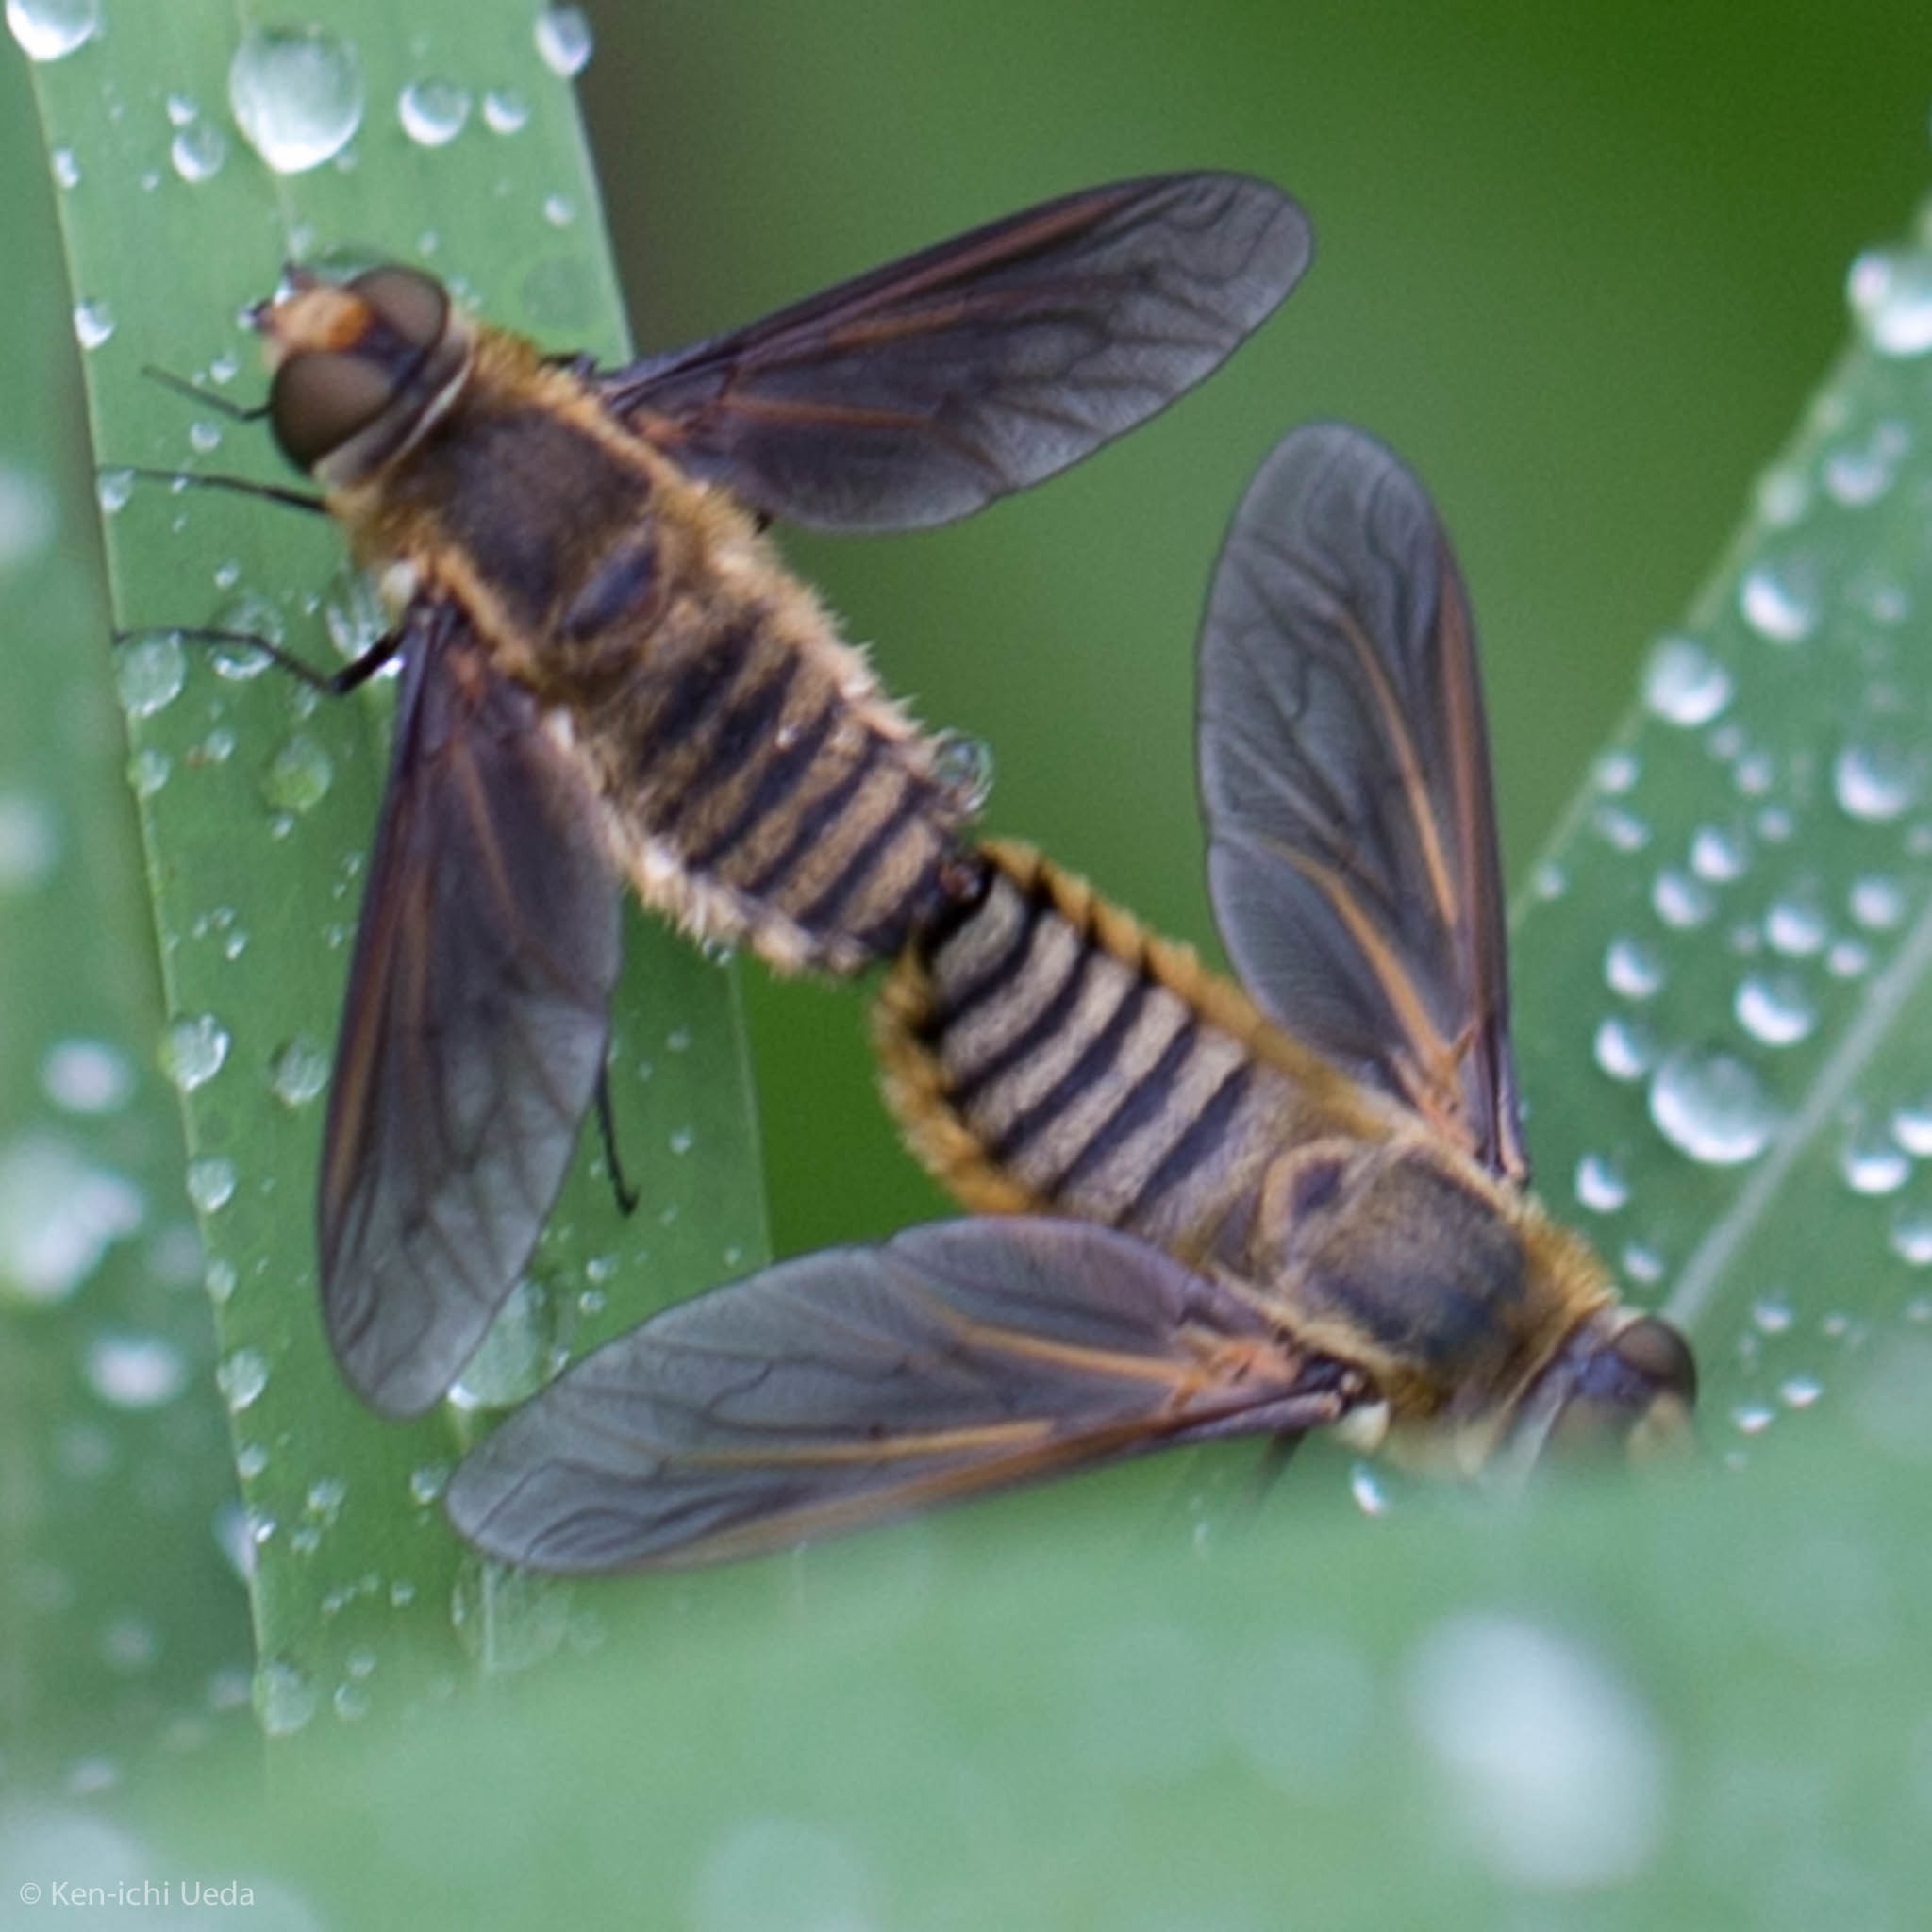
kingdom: Animalia
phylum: Arthropoda
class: Insecta
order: Diptera
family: Bombyliidae
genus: Poecilanthrax
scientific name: Poecilanthrax lucifer
